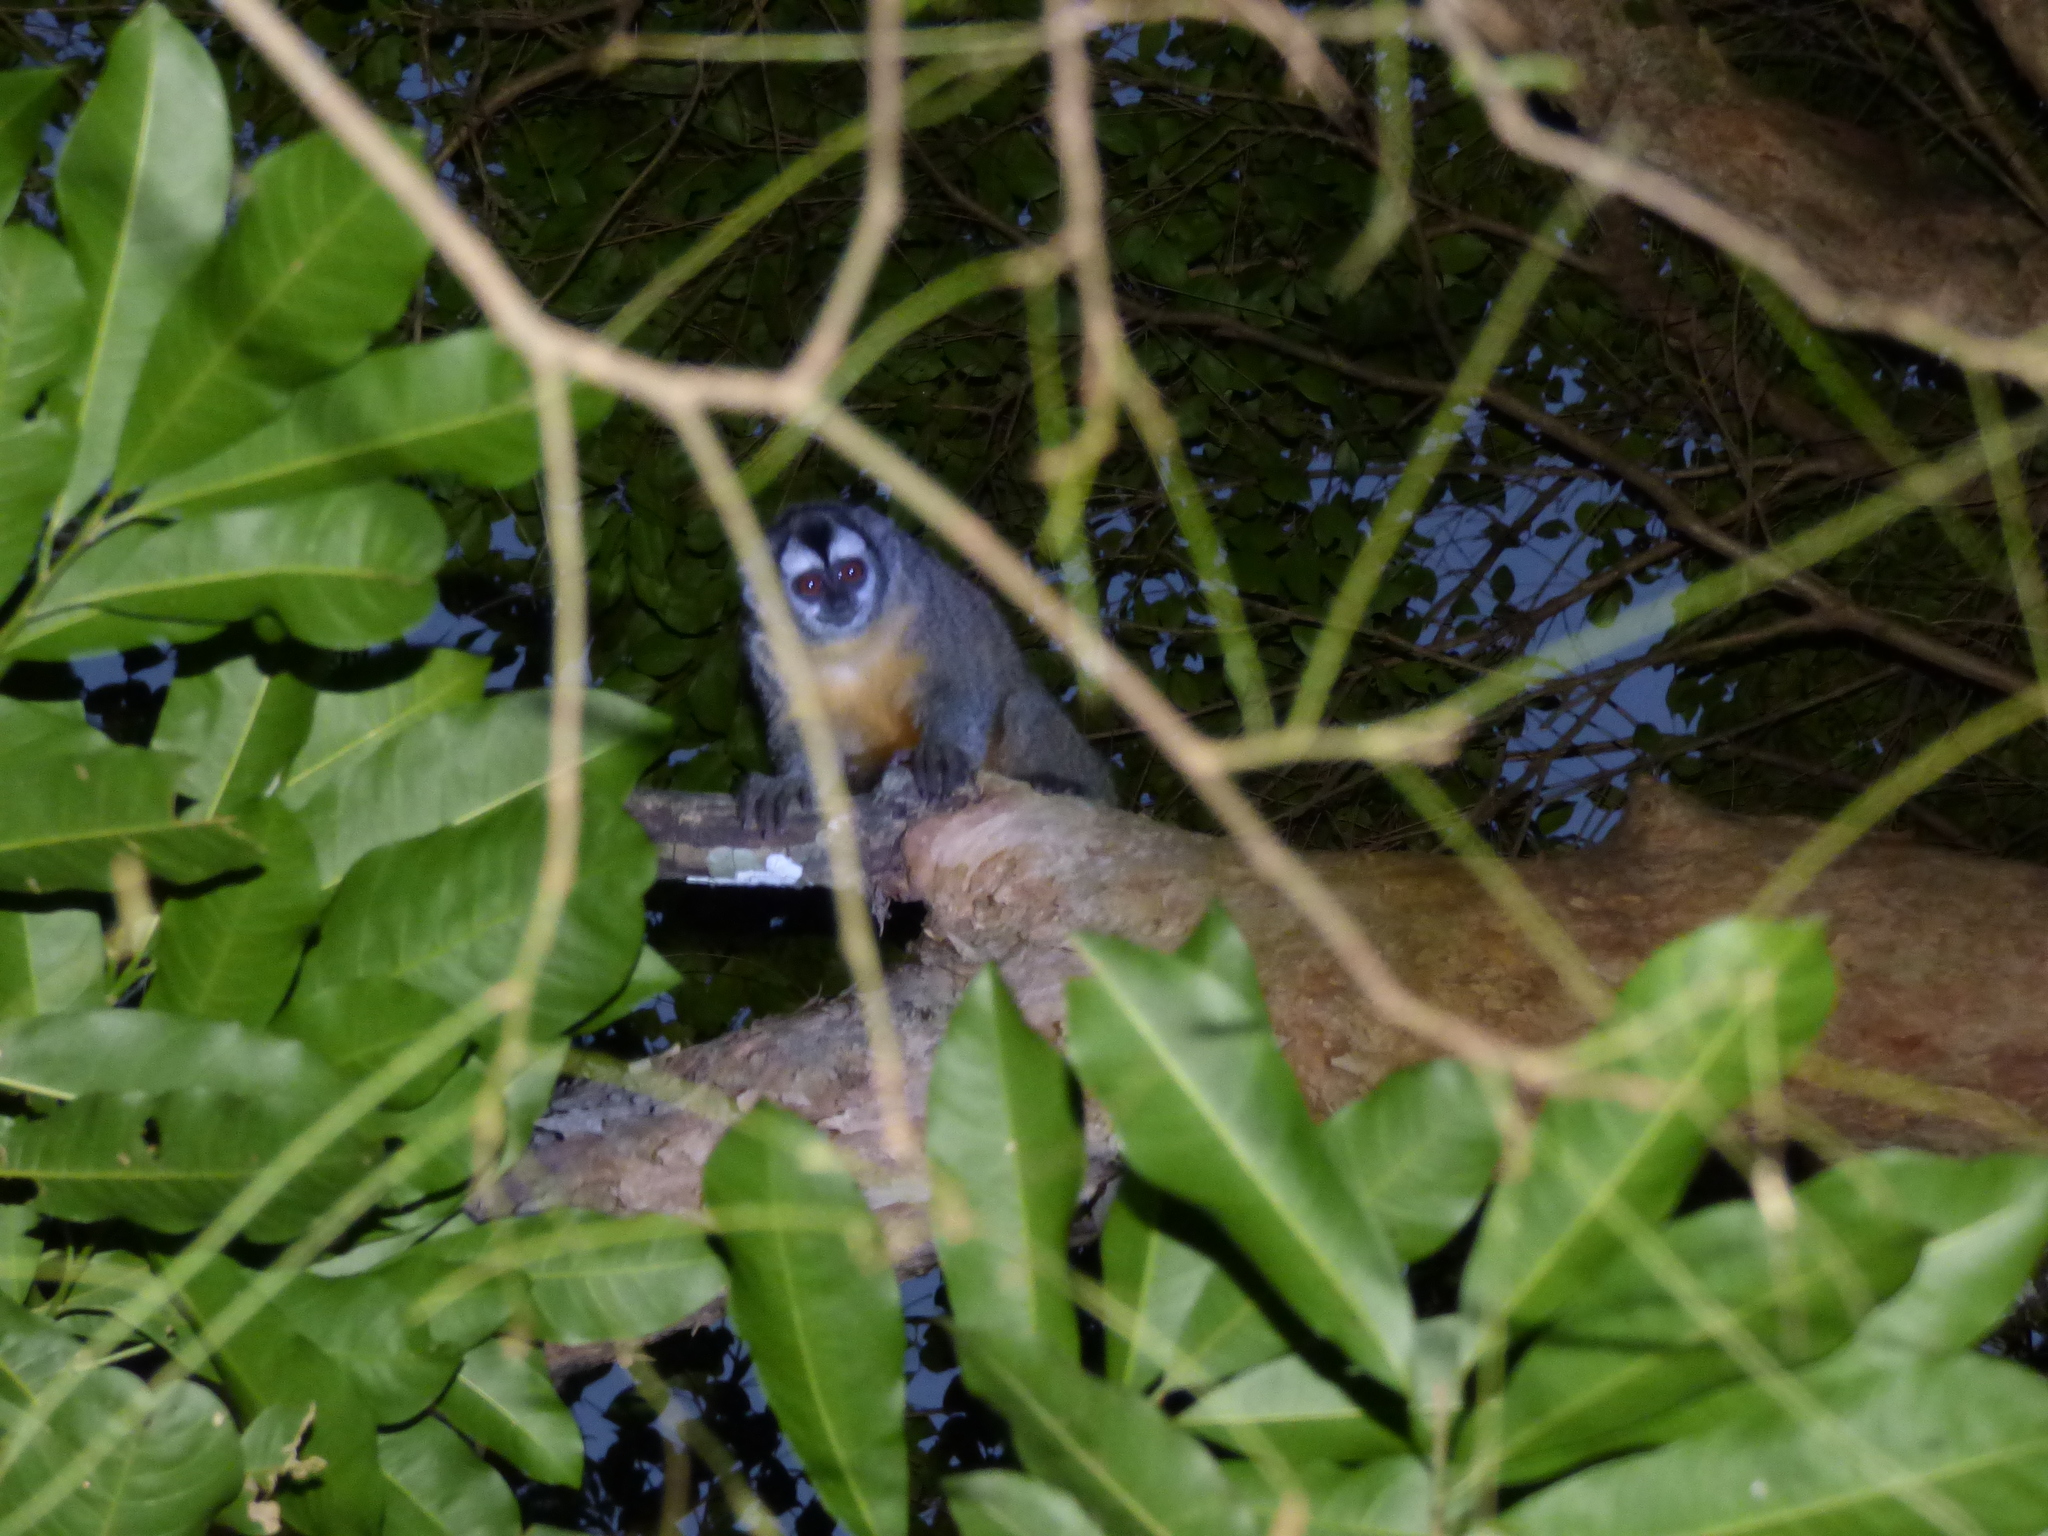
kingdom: Animalia
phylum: Chordata
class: Mammalia
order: Primates
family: Aotidae
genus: Aotus
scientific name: Aotus azarae
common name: Azara's night monkey
